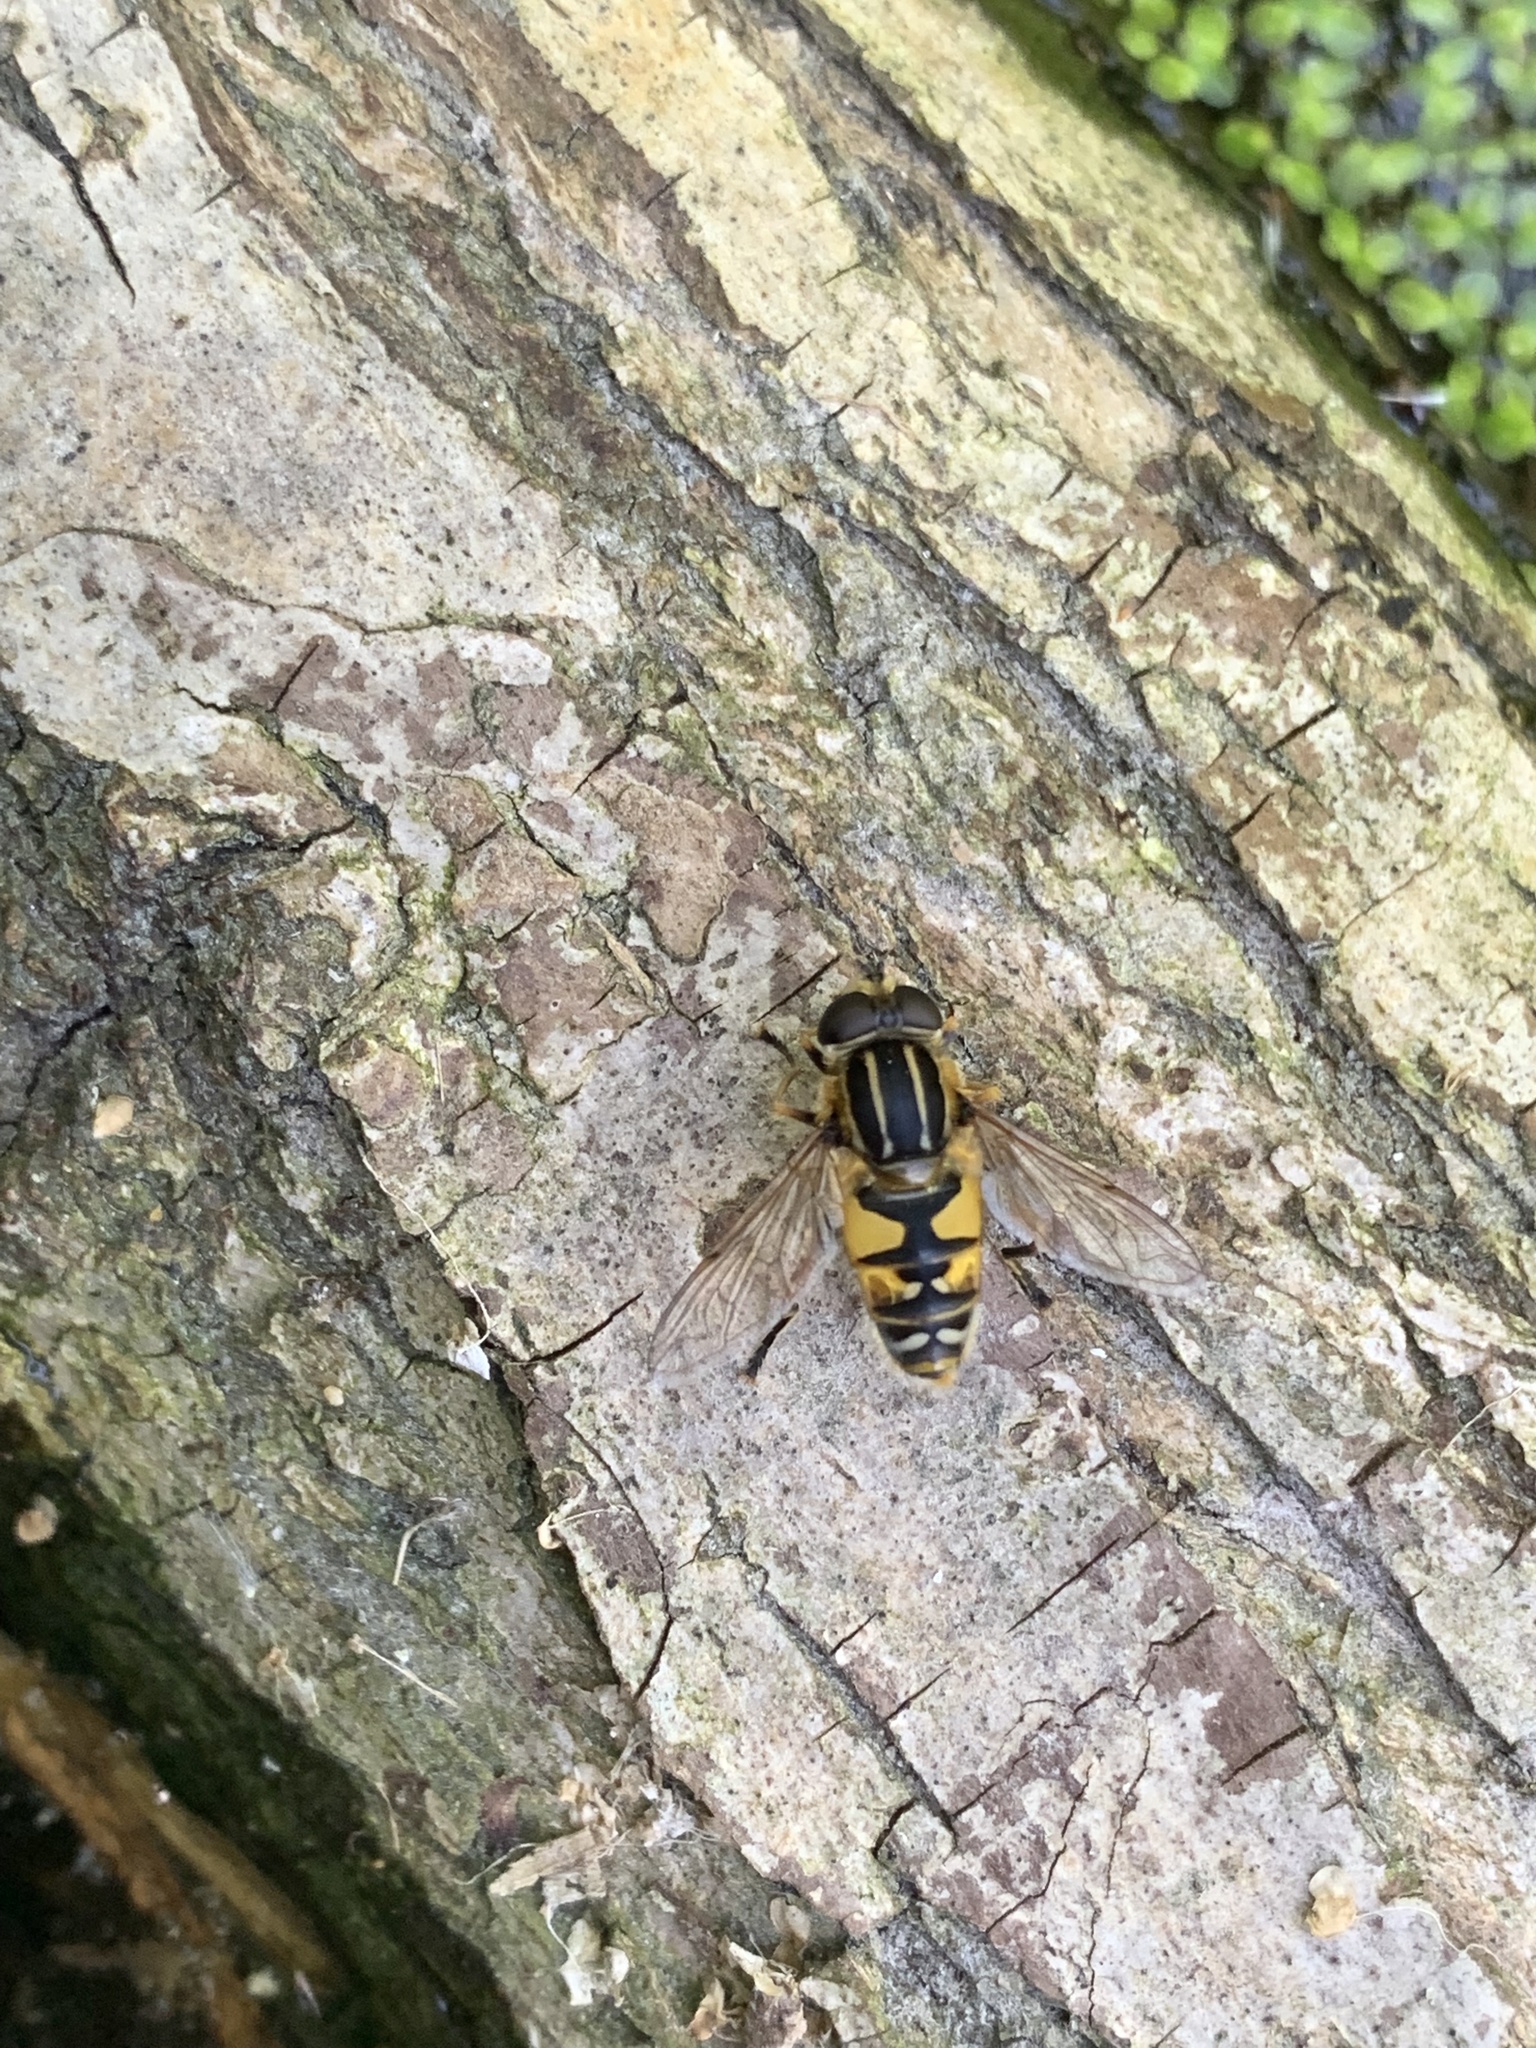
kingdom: Animalia
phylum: Arthropoda
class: Insecta
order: Diptera
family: Syrphidae
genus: Helophilus
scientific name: Helophilus pendulus
